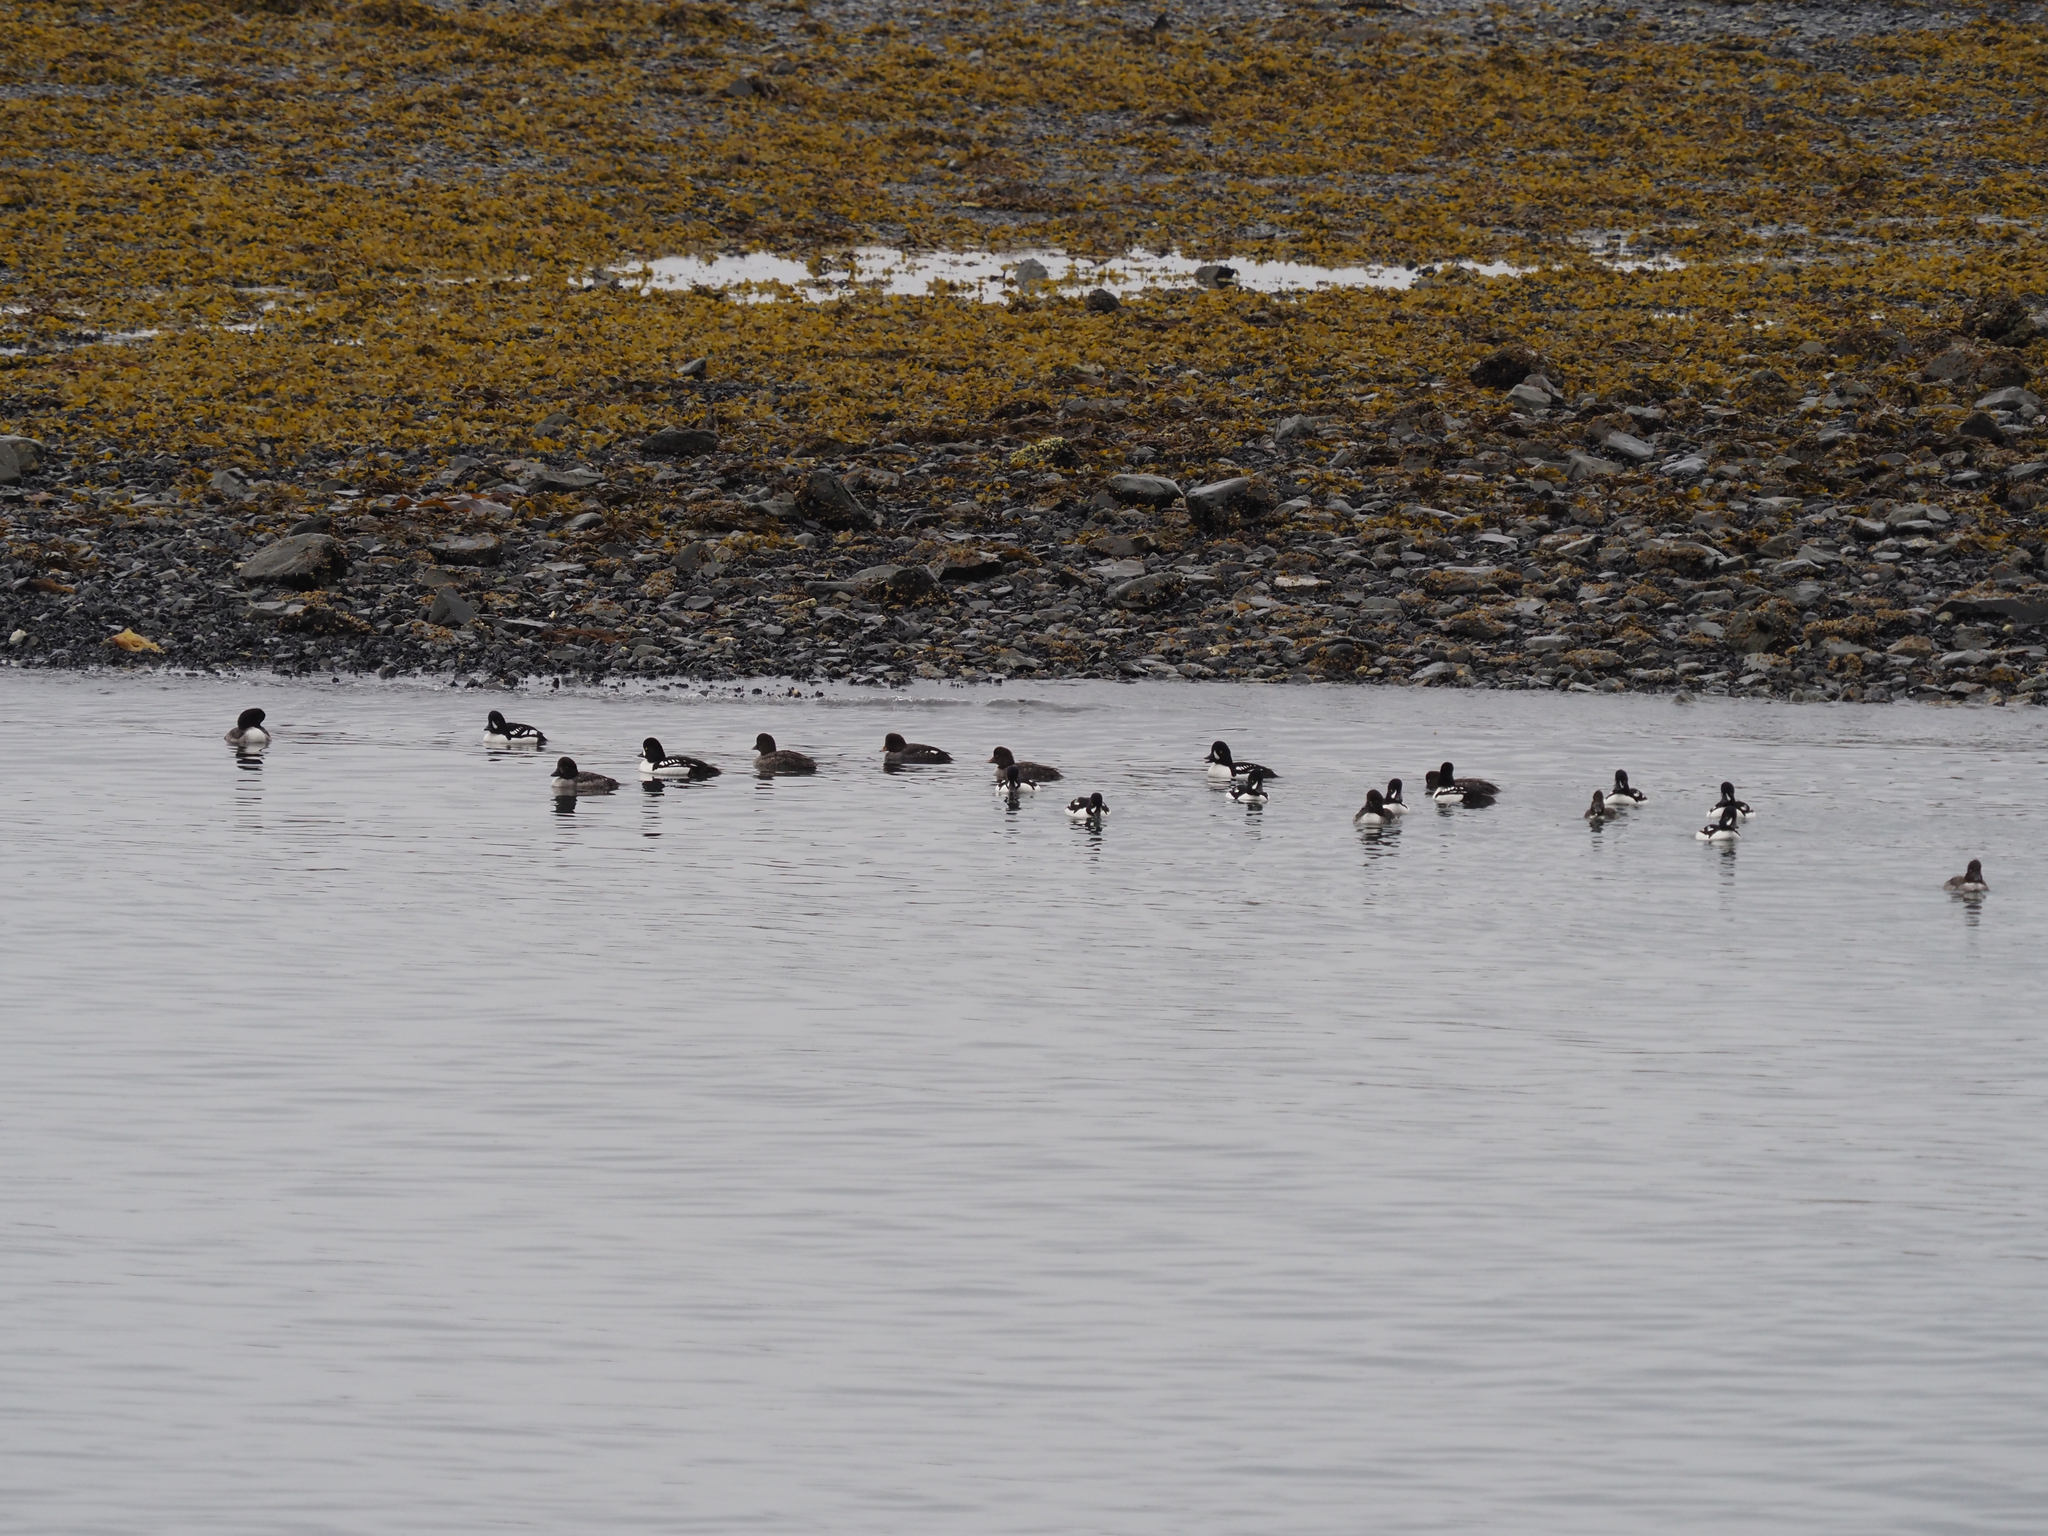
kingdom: Animalia
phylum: Chordata
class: Aves
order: Anseriformes
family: Anatidae
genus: Bucephala
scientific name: Bucephala islandica
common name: Barrow's goldeneye
